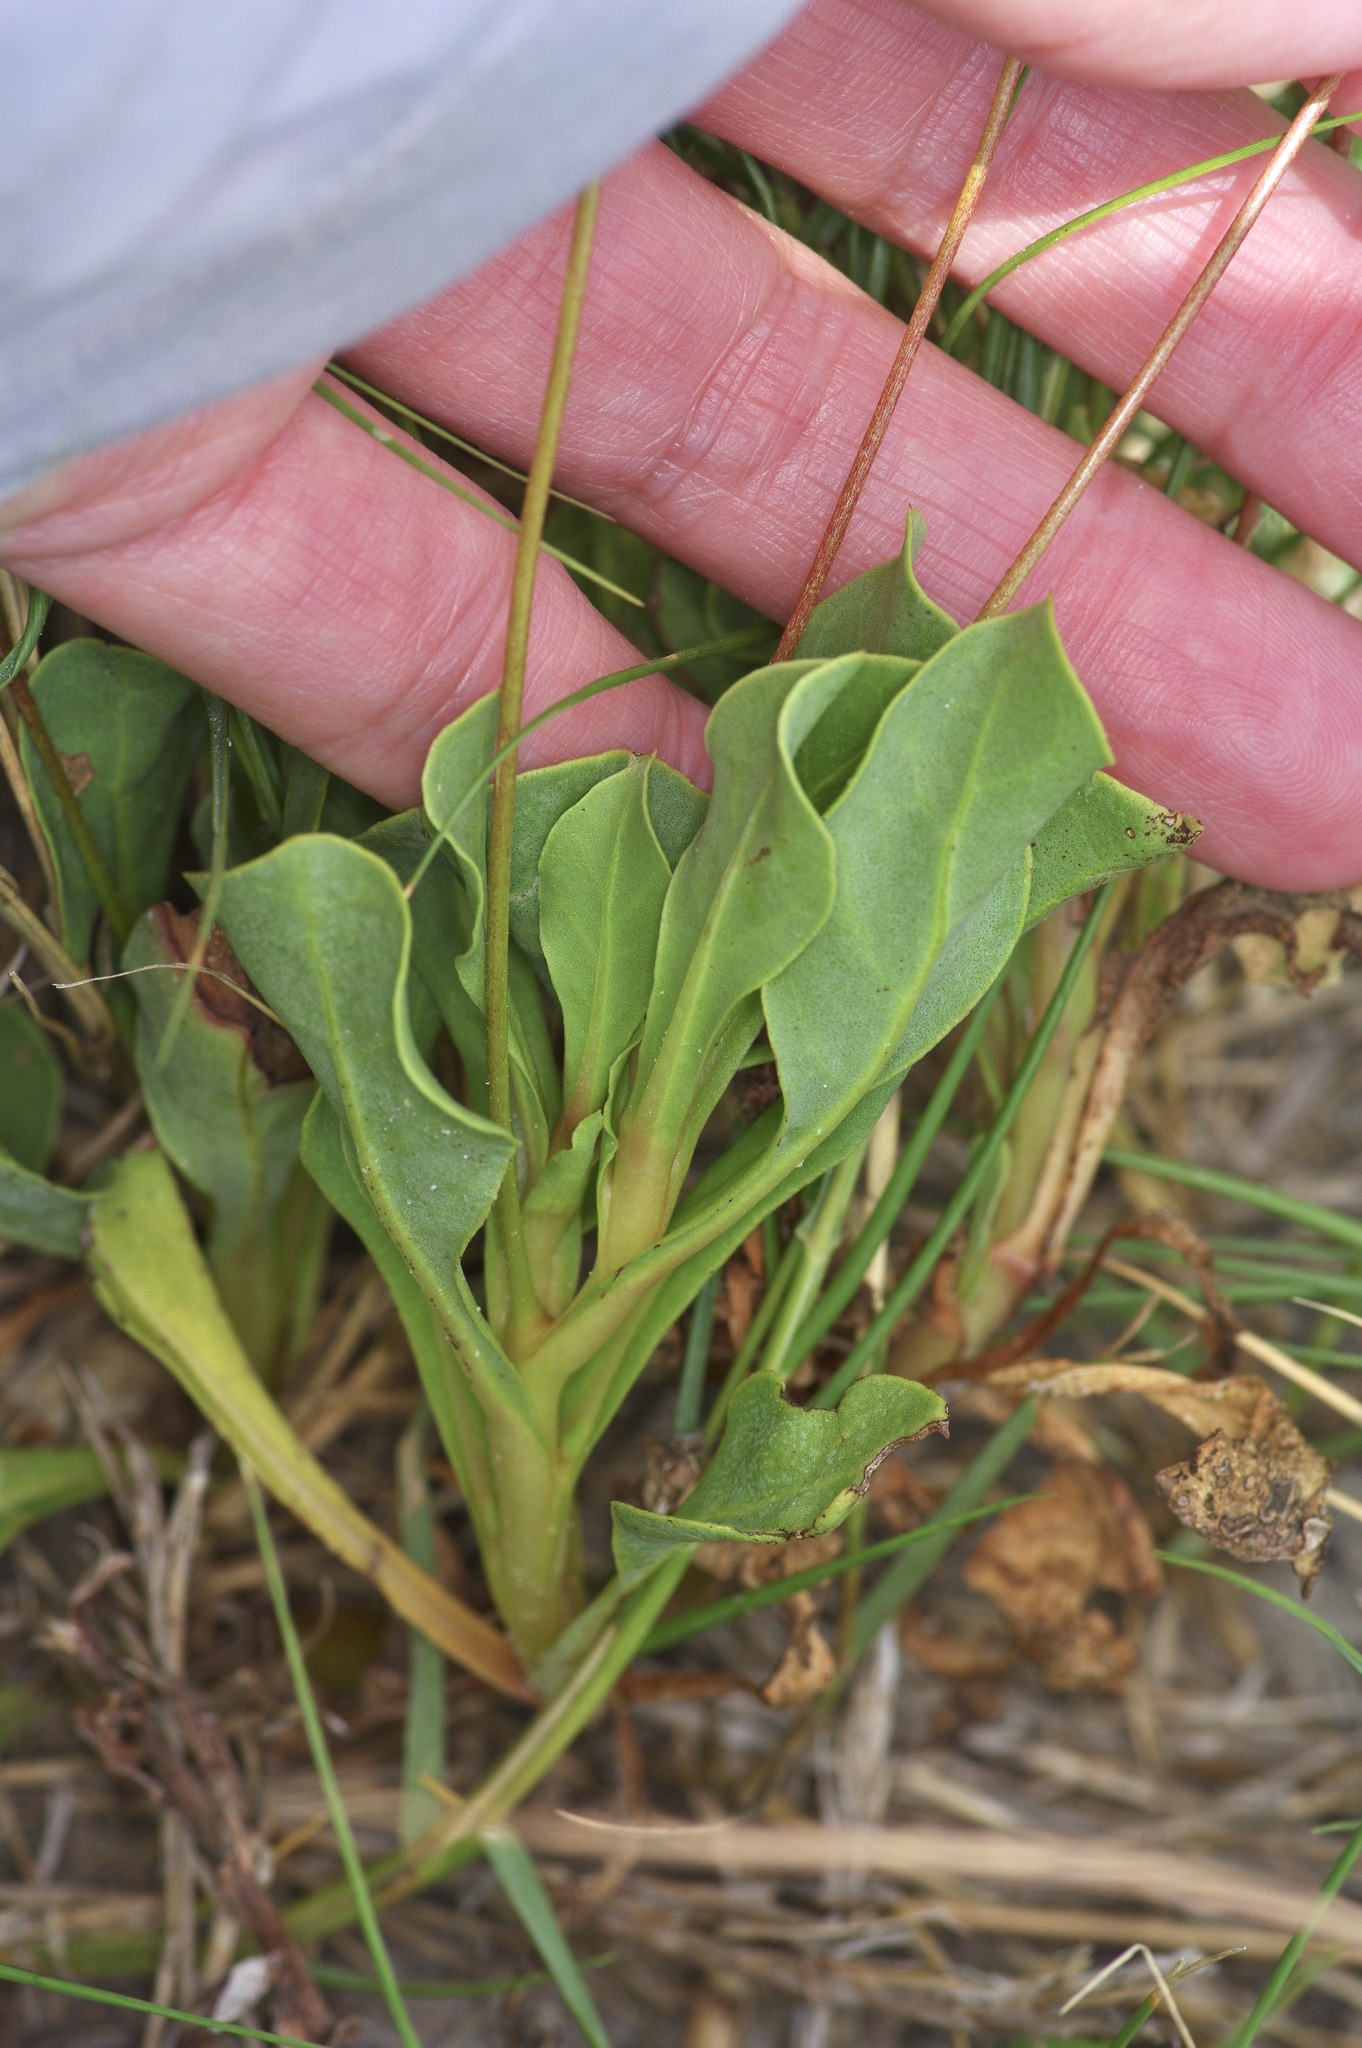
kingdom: Plantae
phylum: Tracheophyta
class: Magnoliopsida
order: Ericales
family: Primulaceae
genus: Samolus
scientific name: Samolus ebracteatus
